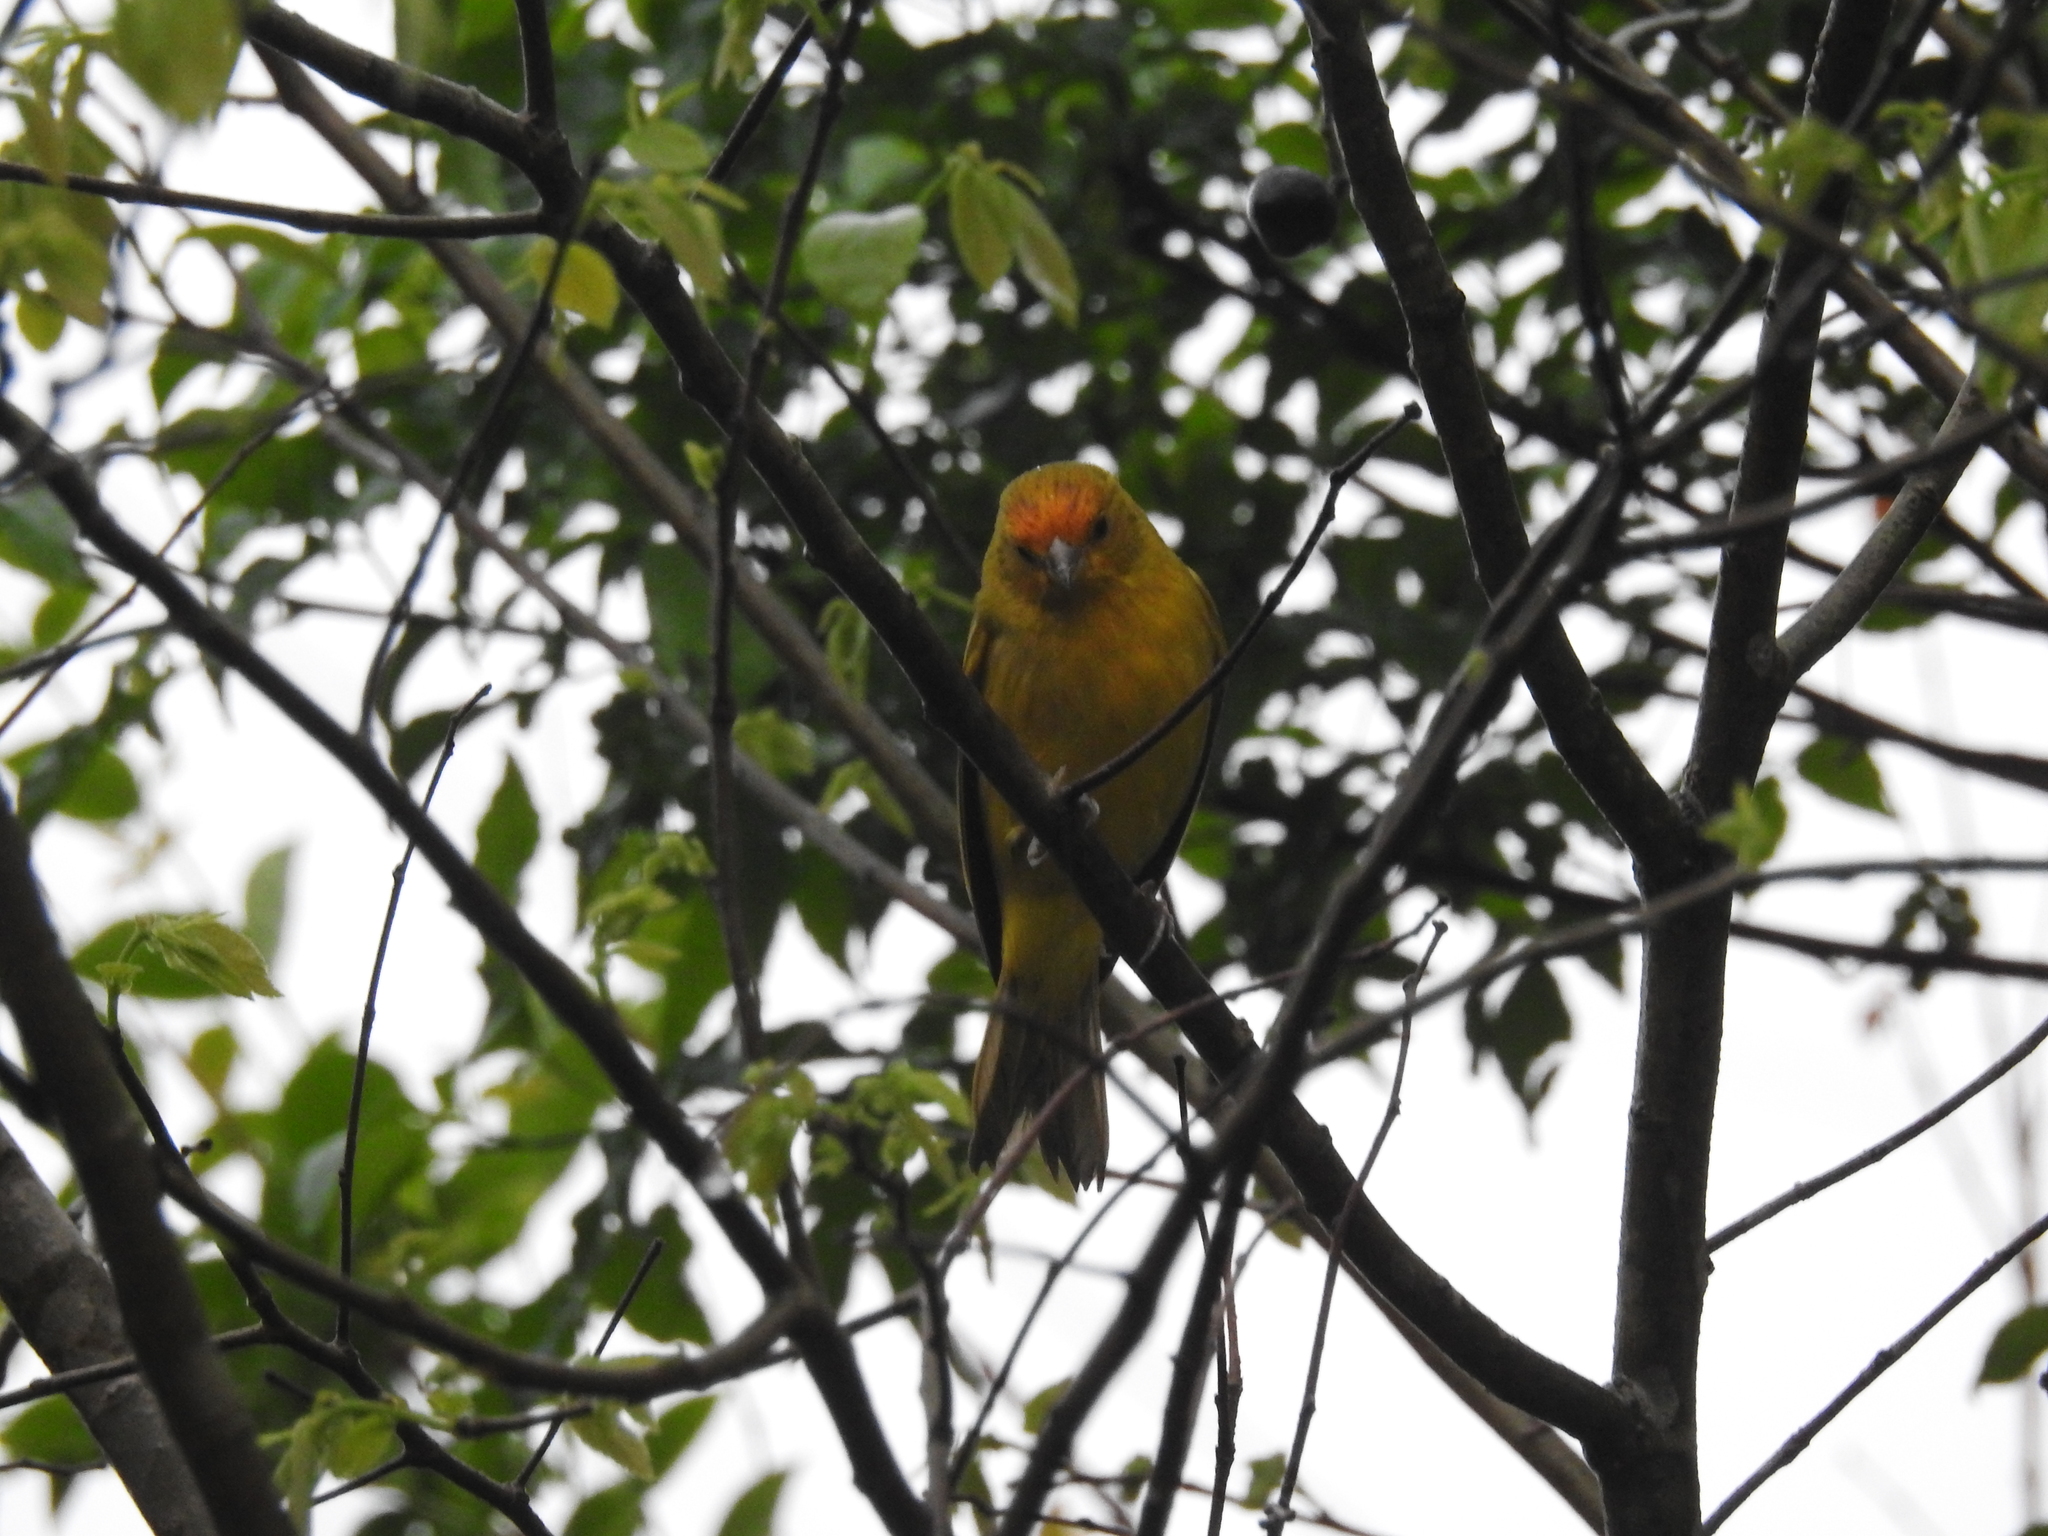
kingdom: Animalia
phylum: Chordata
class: Aves
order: Passeriformes
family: Thraupidae
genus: Sicalis
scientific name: Sicalis flaveola
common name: Saffron finch
